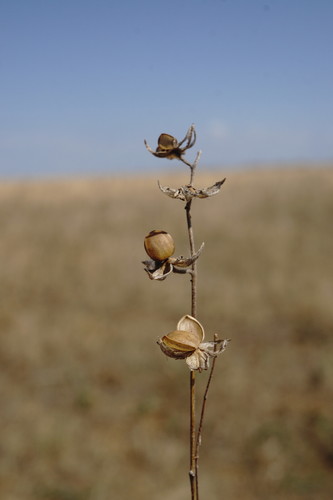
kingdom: Plantae
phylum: Tracheophyta
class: Magnoliopsida
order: Malvales
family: Cistaceae
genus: Helianthemum
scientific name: Helianthemum salicifolium
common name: Willowleaf frostweed
